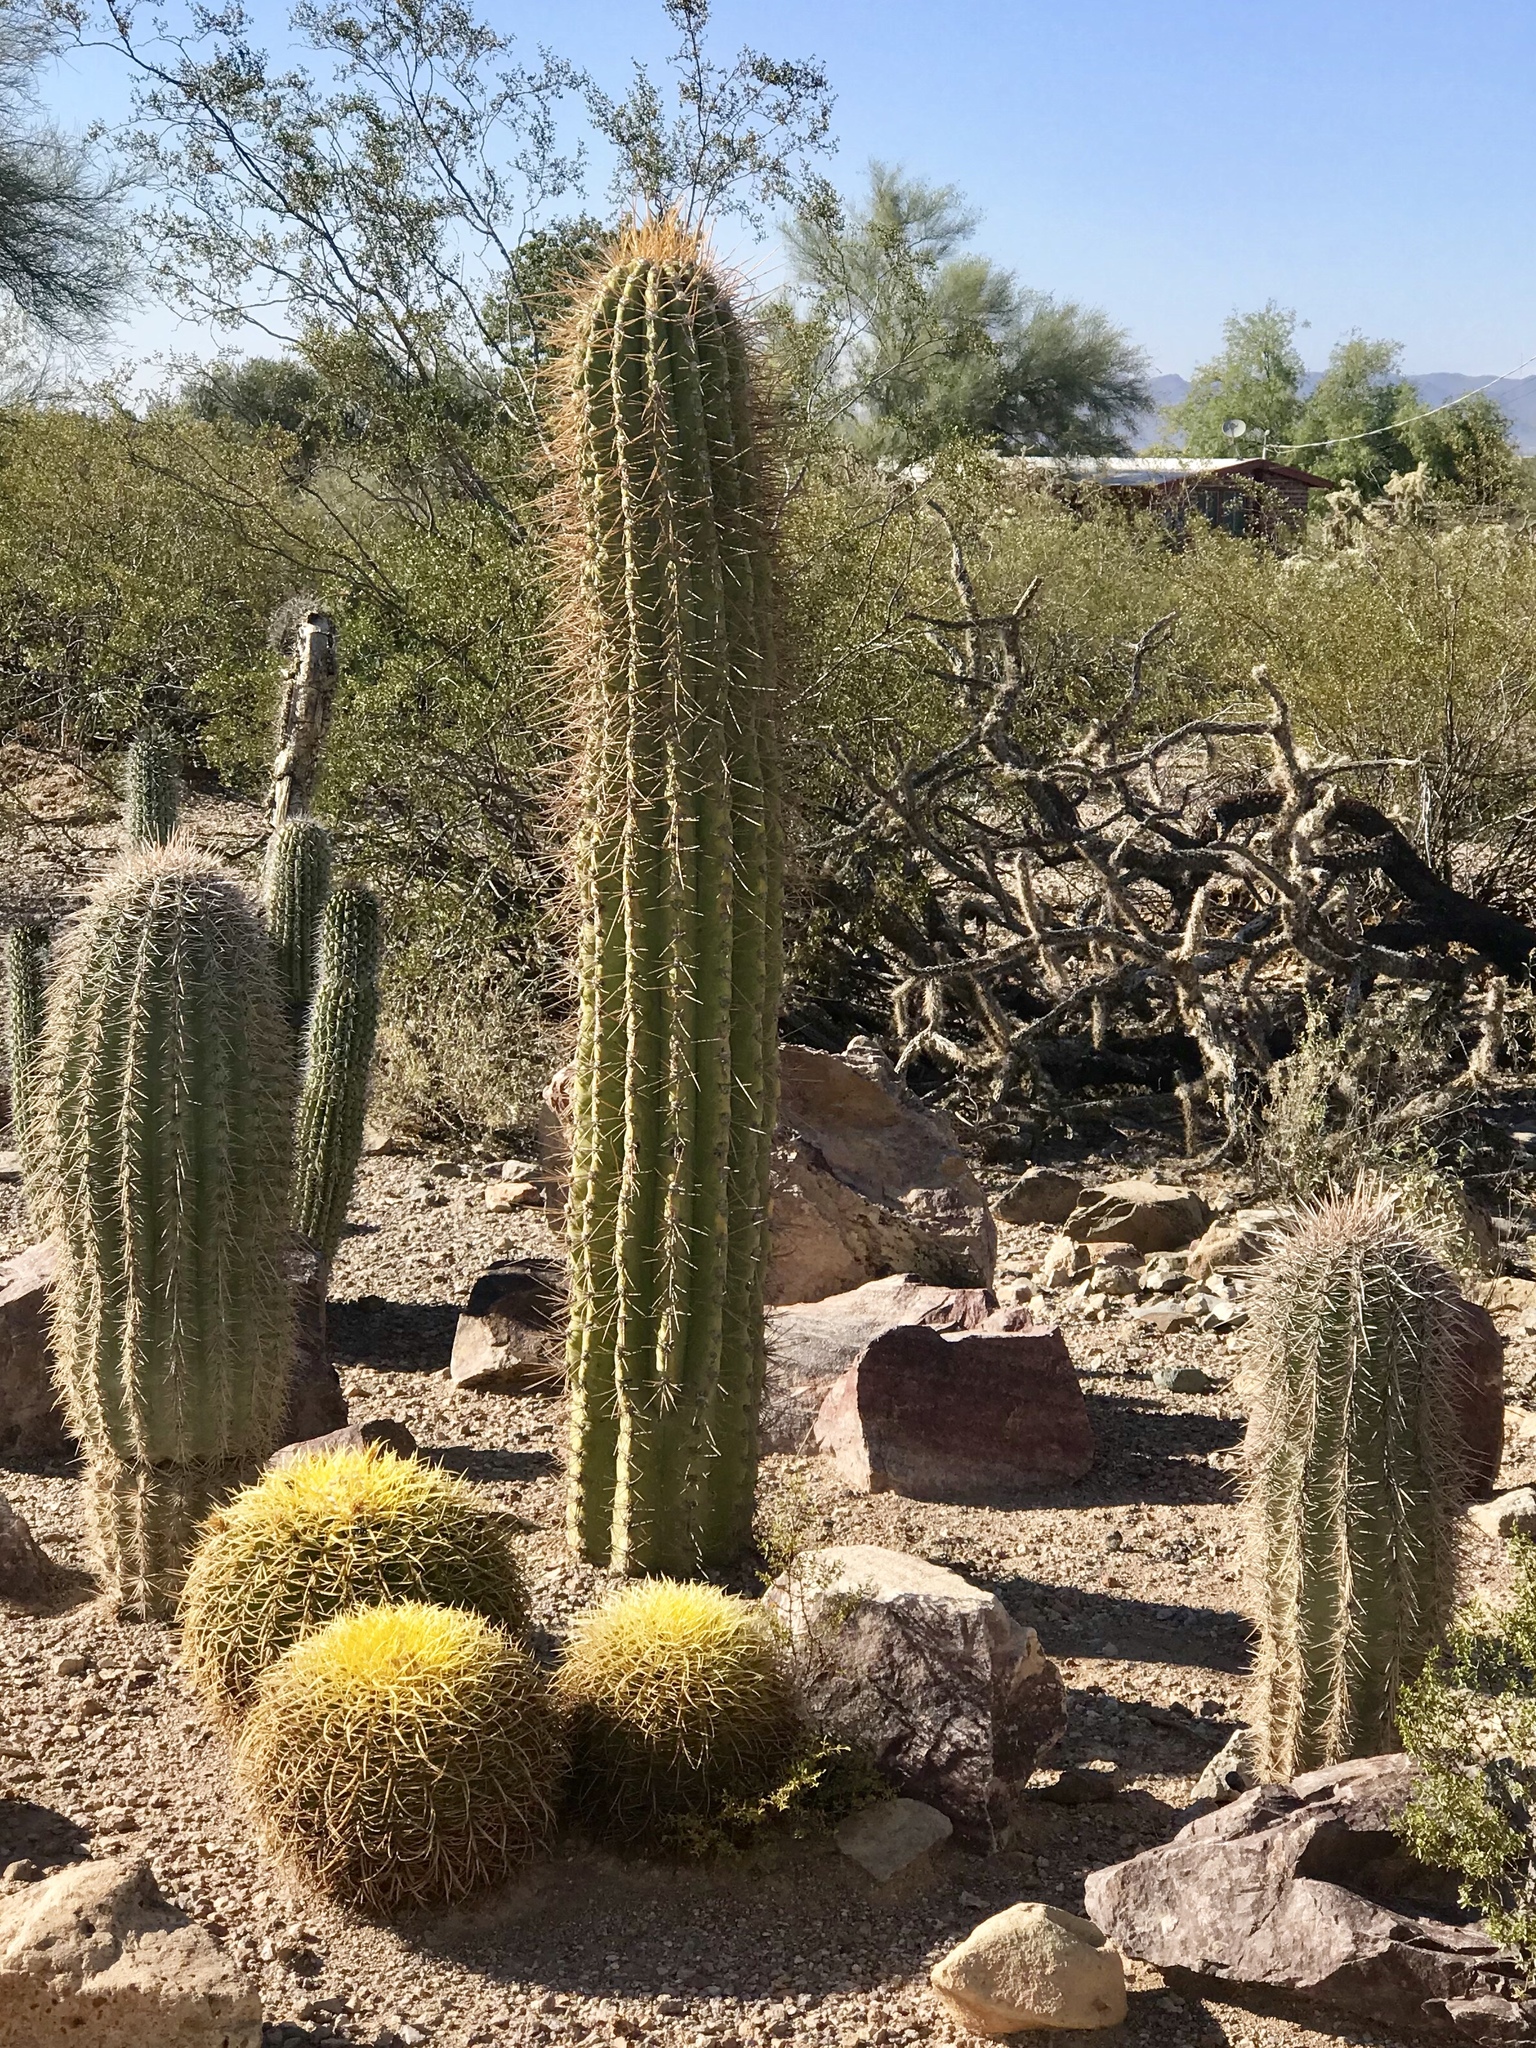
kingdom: Plantae
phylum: Tracheophyta
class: Magnoliopsida
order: Caryophyllales
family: Cactaceae
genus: Carnegiea
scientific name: Carnegiea gigantea
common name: Saguaro
